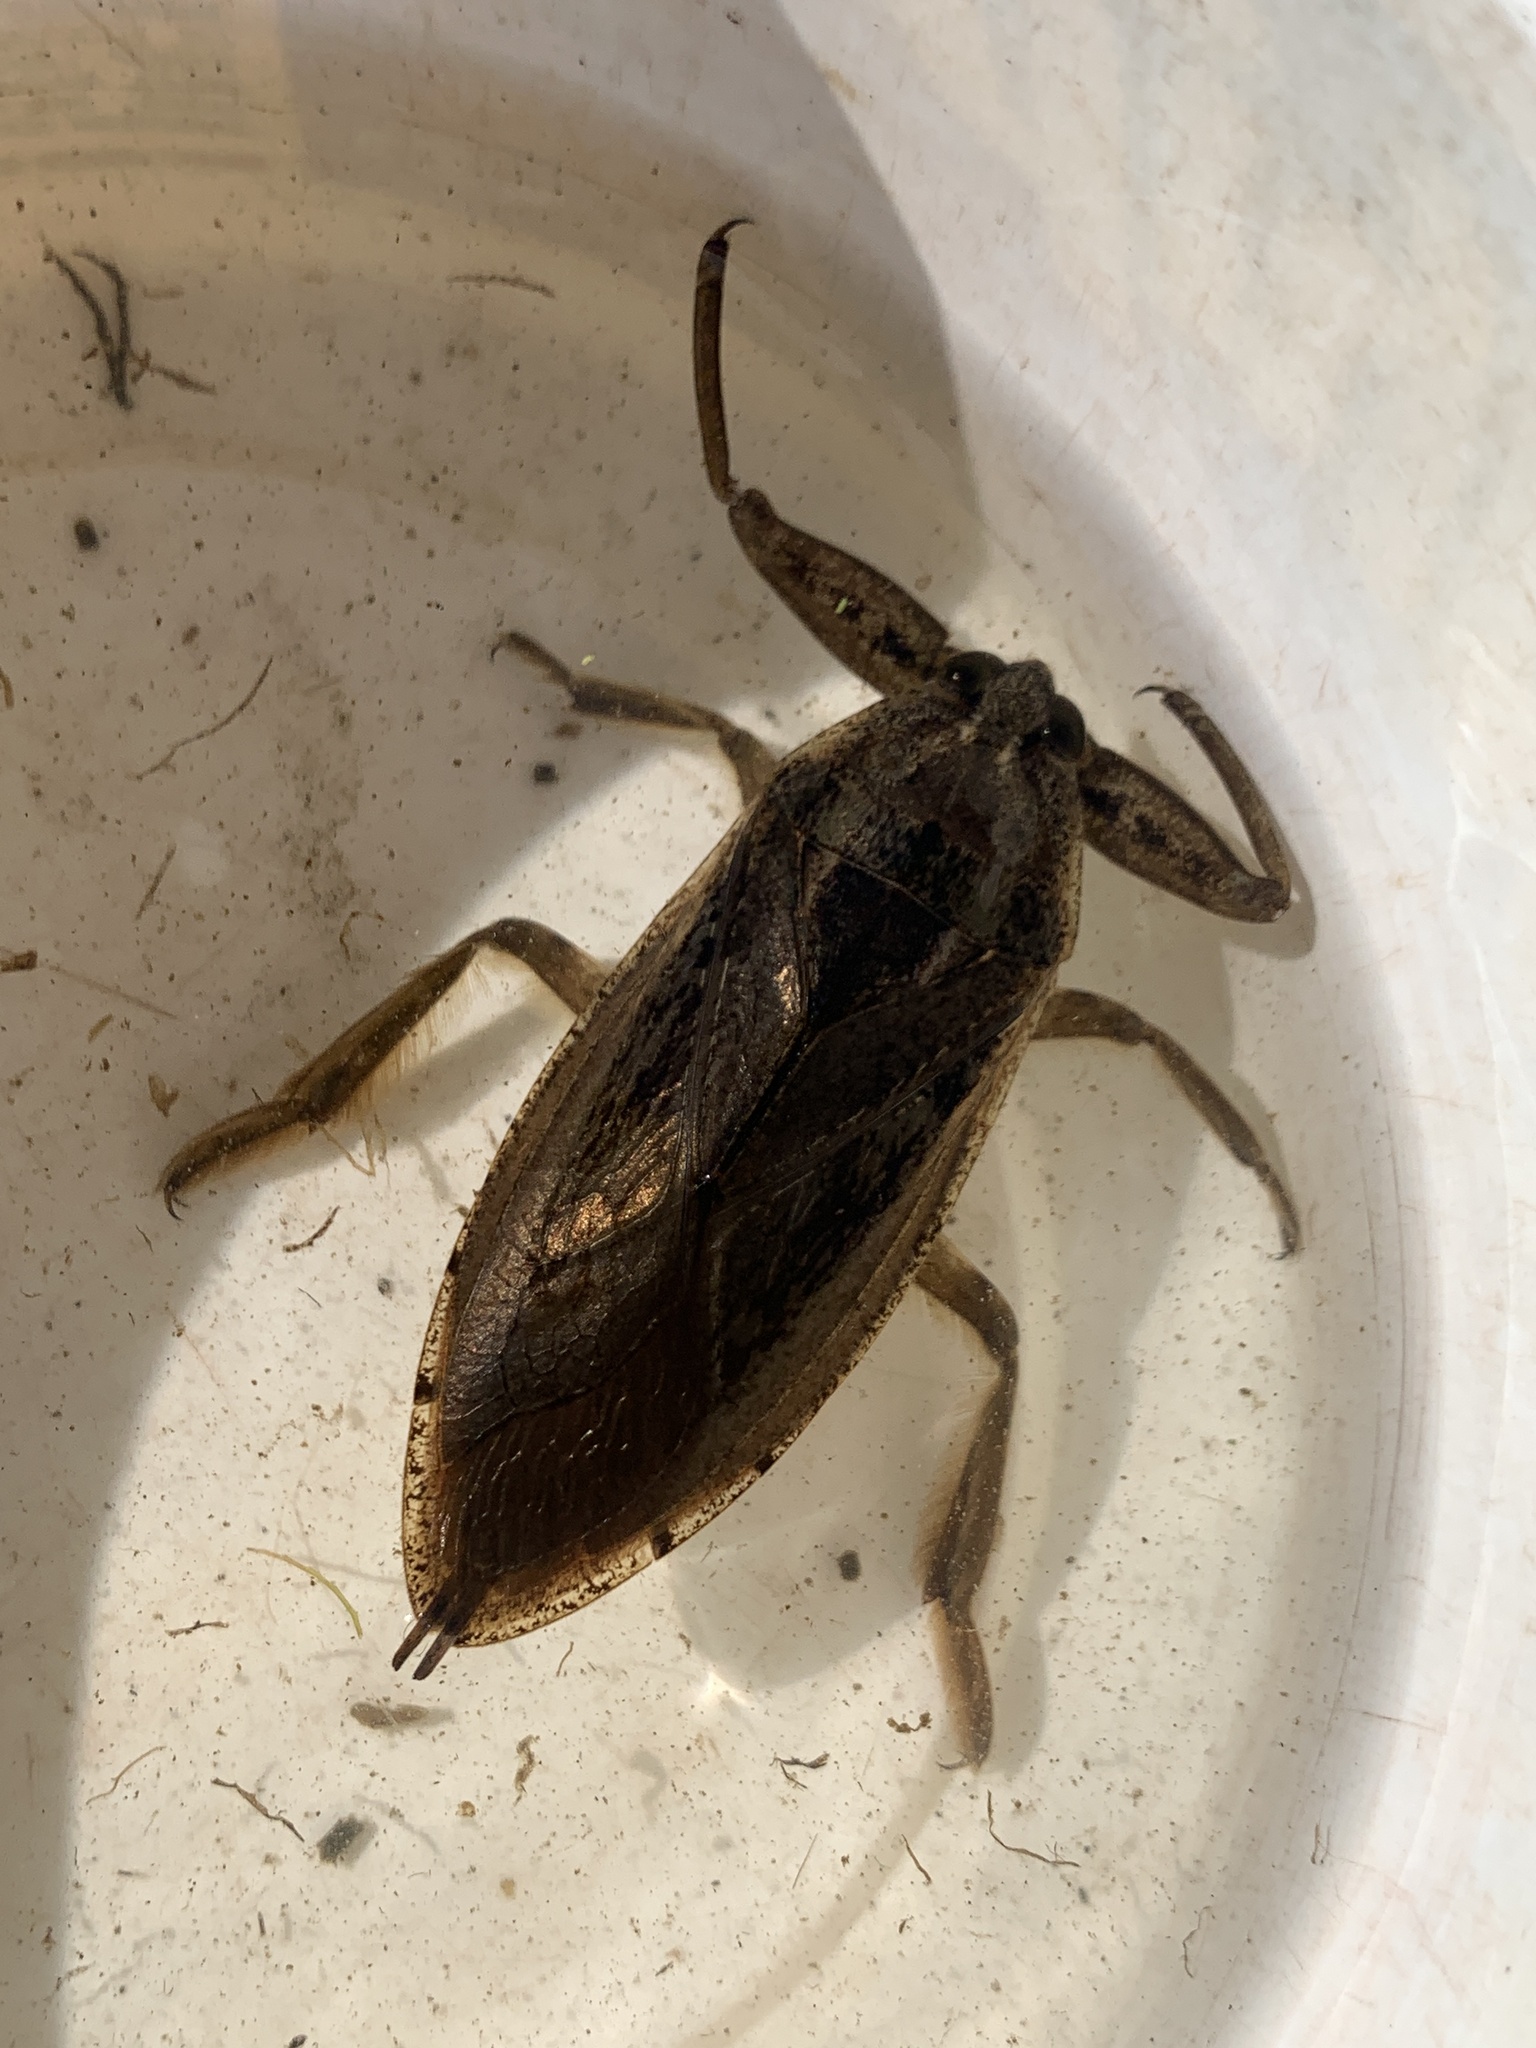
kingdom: Animalia
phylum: Arthropoda
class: Insecta
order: Hemiptera
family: Belostomatidae
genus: Lethocerus
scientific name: Lethocerus americanus
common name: Giant water bug
